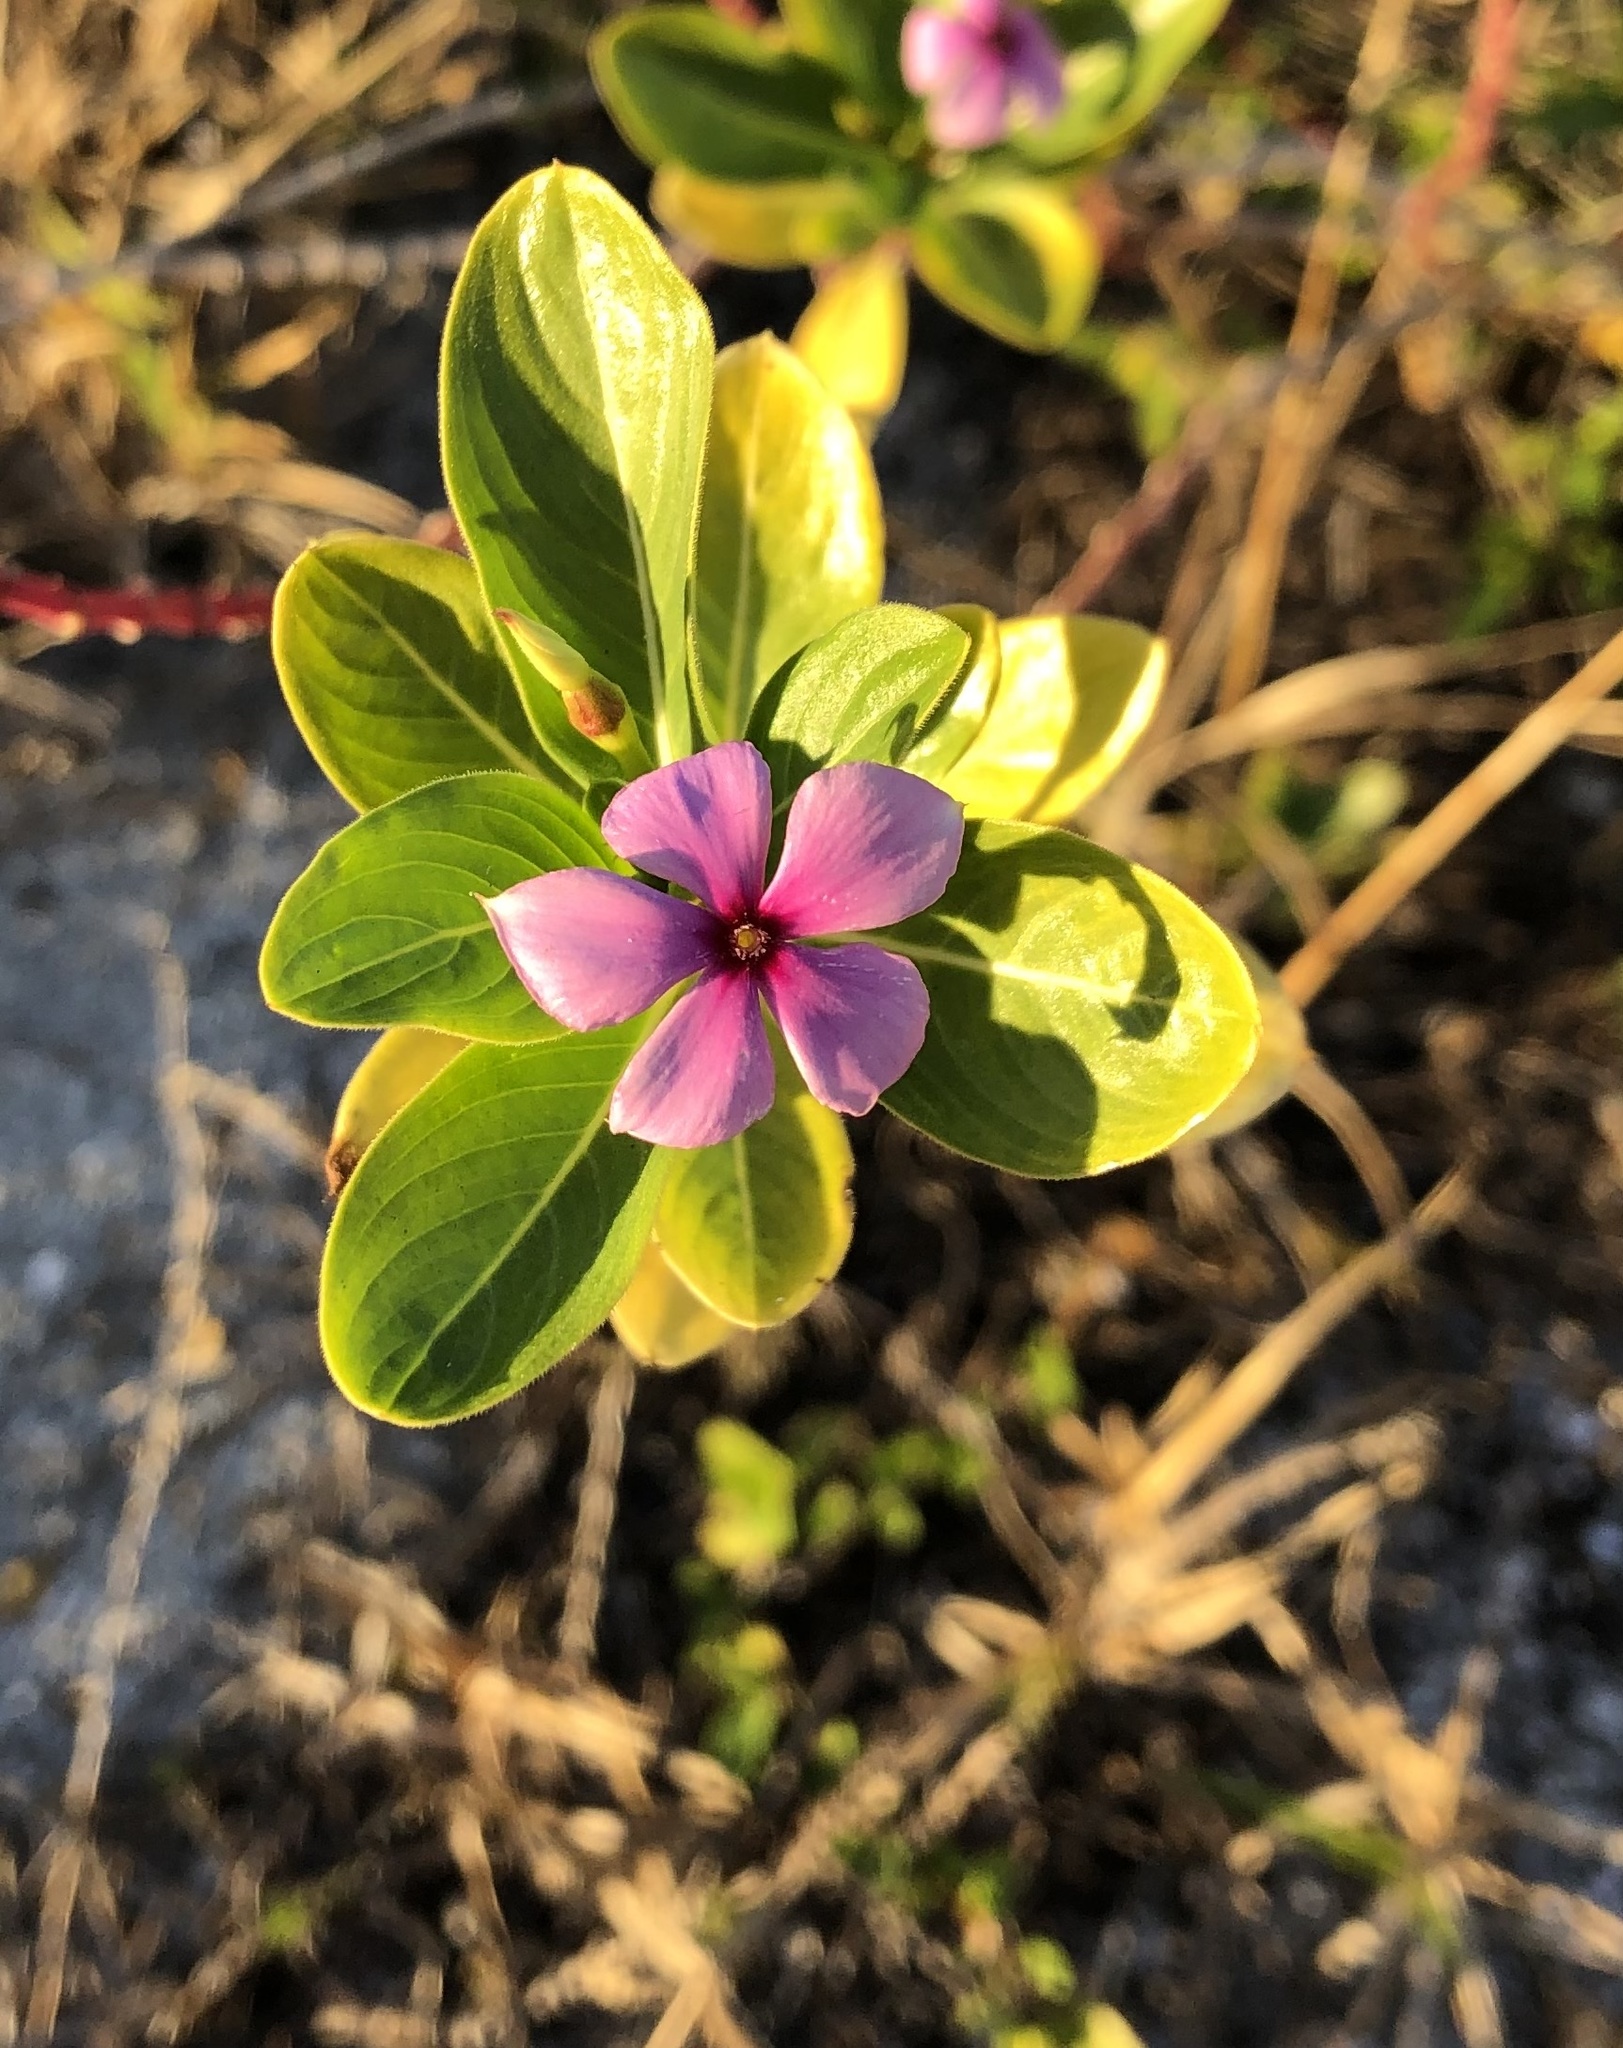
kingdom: Plantae
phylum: Tracheophyta
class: Magnoliopsida
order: Gentianales
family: Apocynaceae
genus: Catharanthus
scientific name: Catharanthus roseus
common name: Madagascar periwinkle
